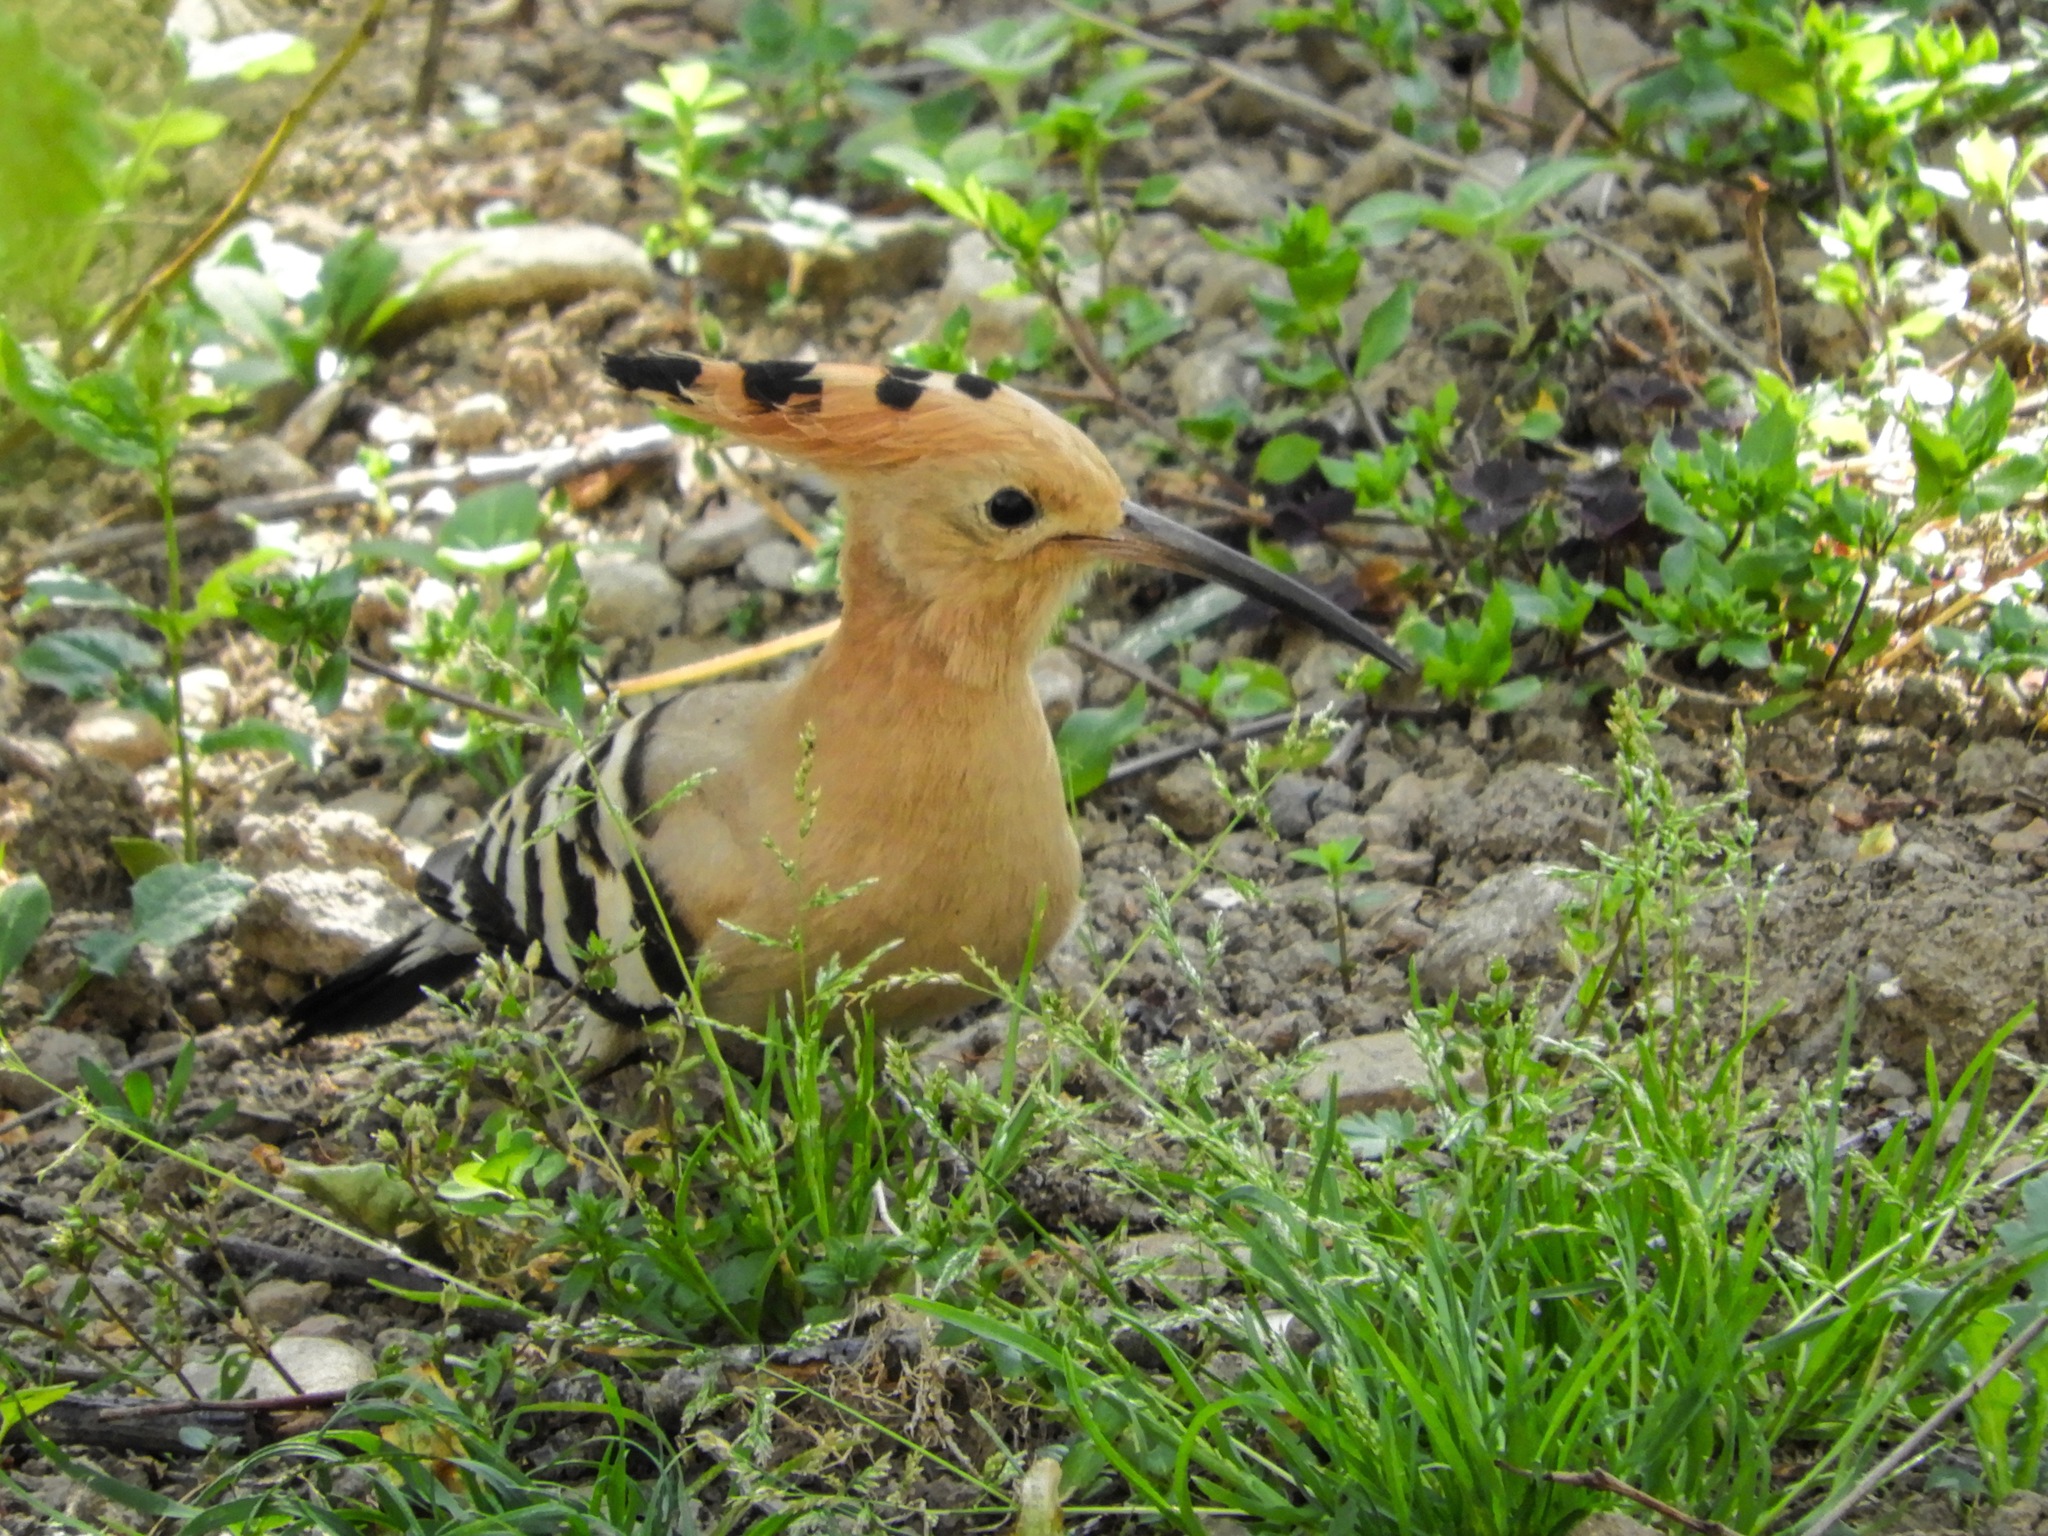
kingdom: Animalia
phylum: Chordata
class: Aves
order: Bucerotiformes
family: Upupidae
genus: Upupa
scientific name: Upupa epops
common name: Eurasian hoopoe
